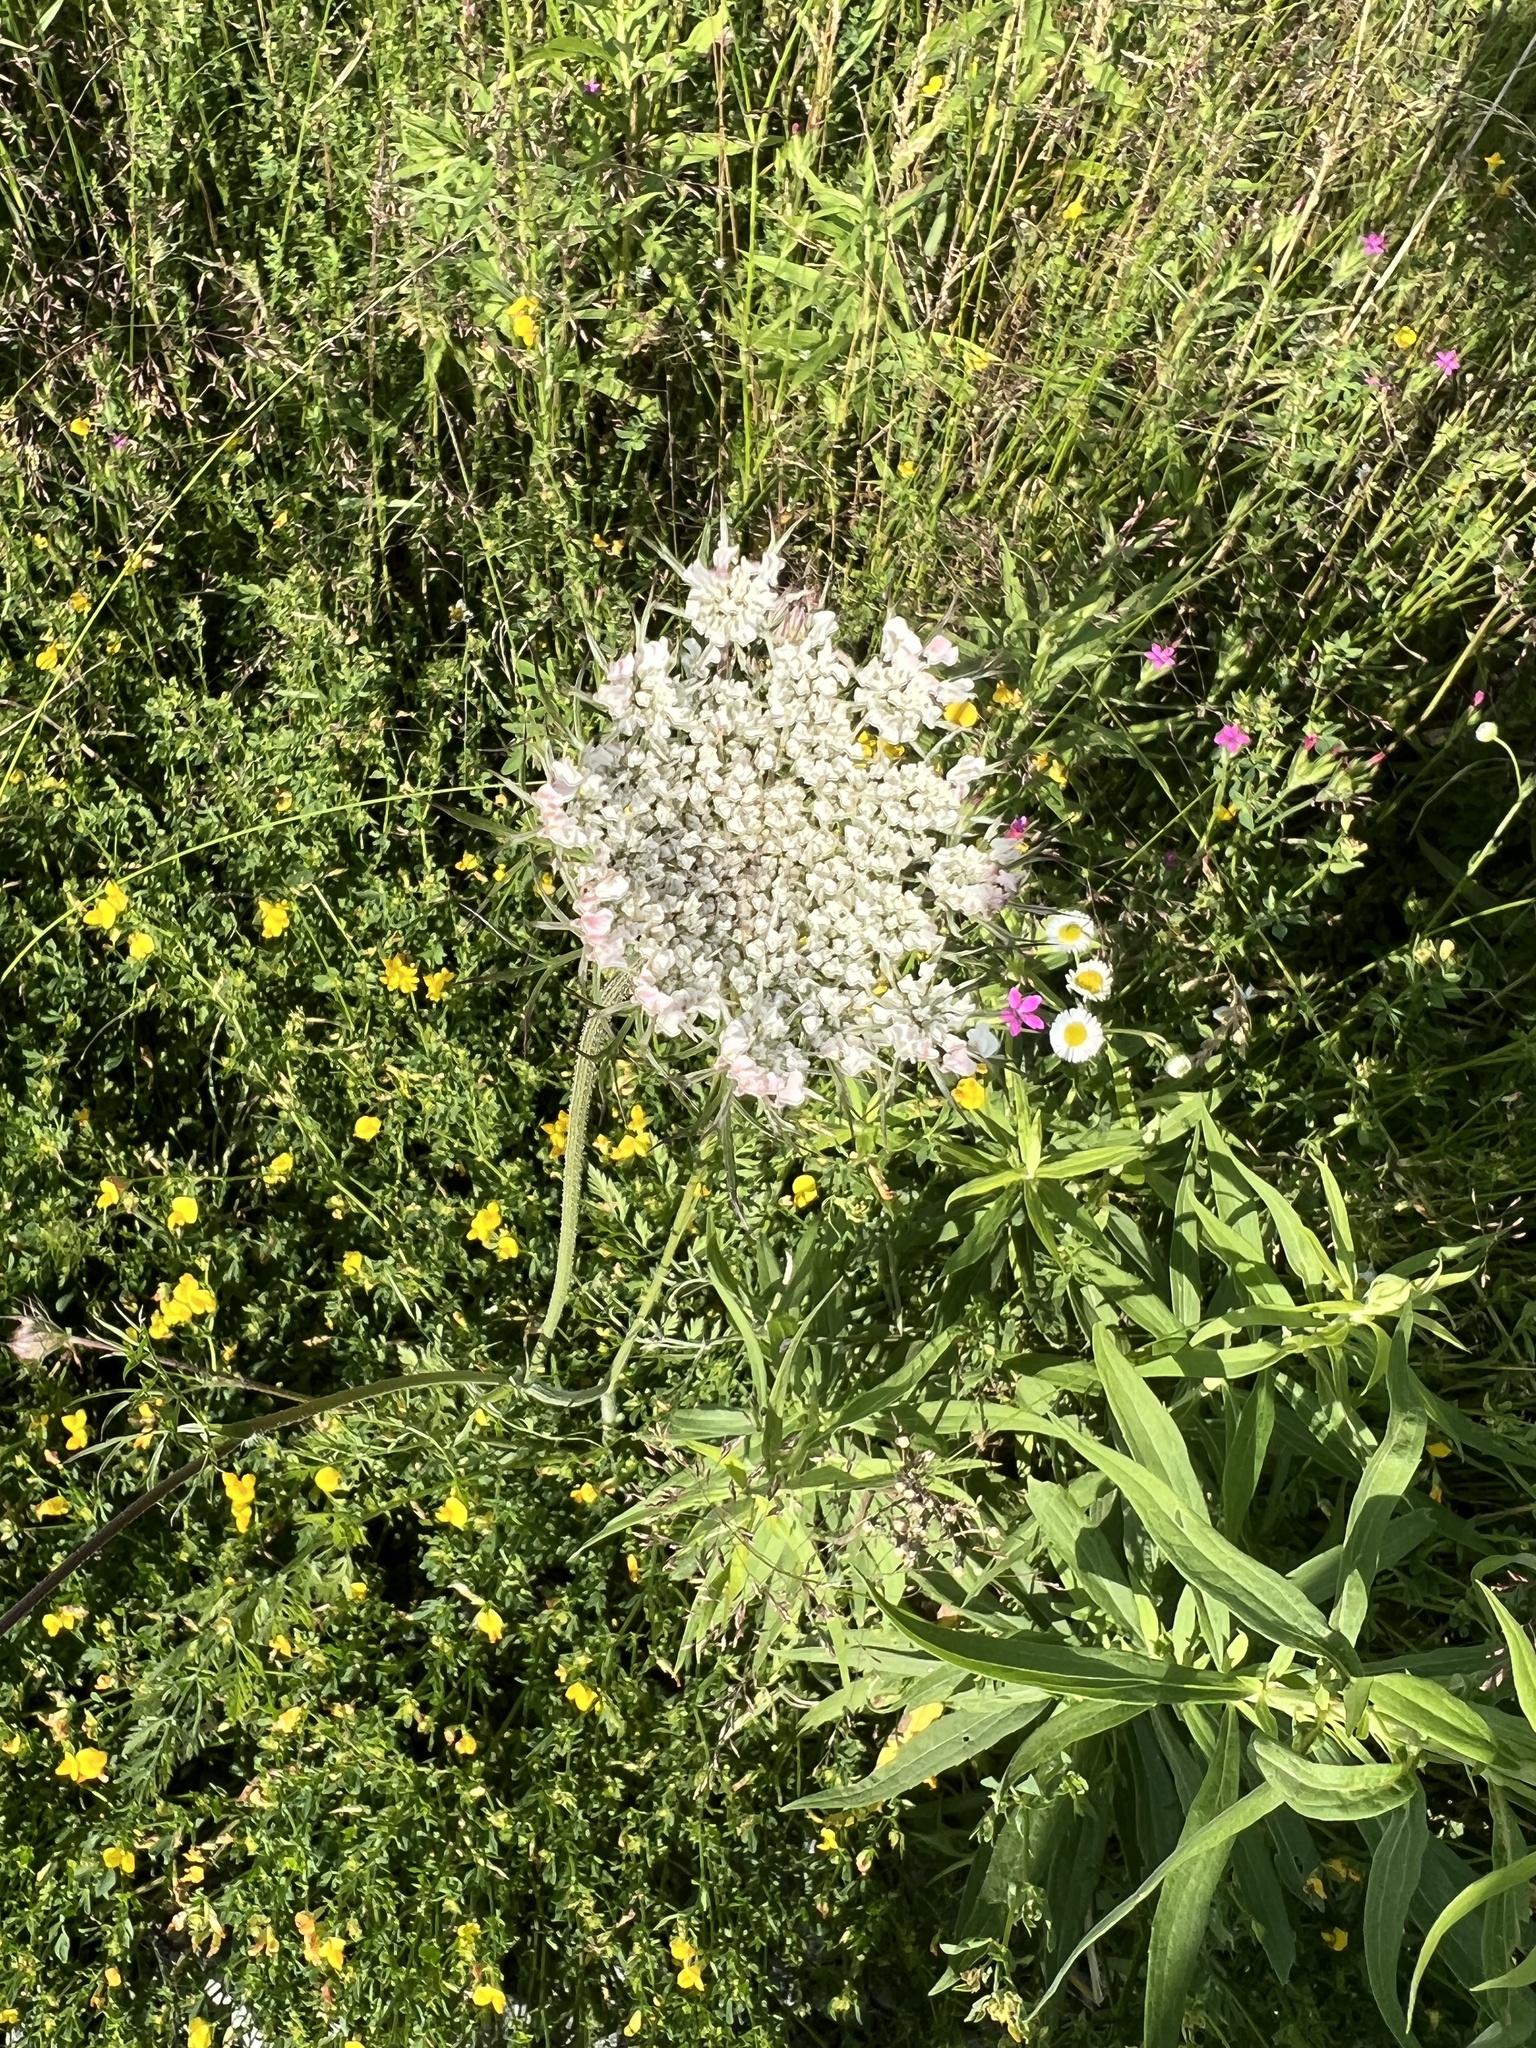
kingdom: Plantae
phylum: Tracheophyta
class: Magnoliopsida
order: Apiales
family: Apiaceae
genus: Daucus
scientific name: Daucus carota
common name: Wild carrot
